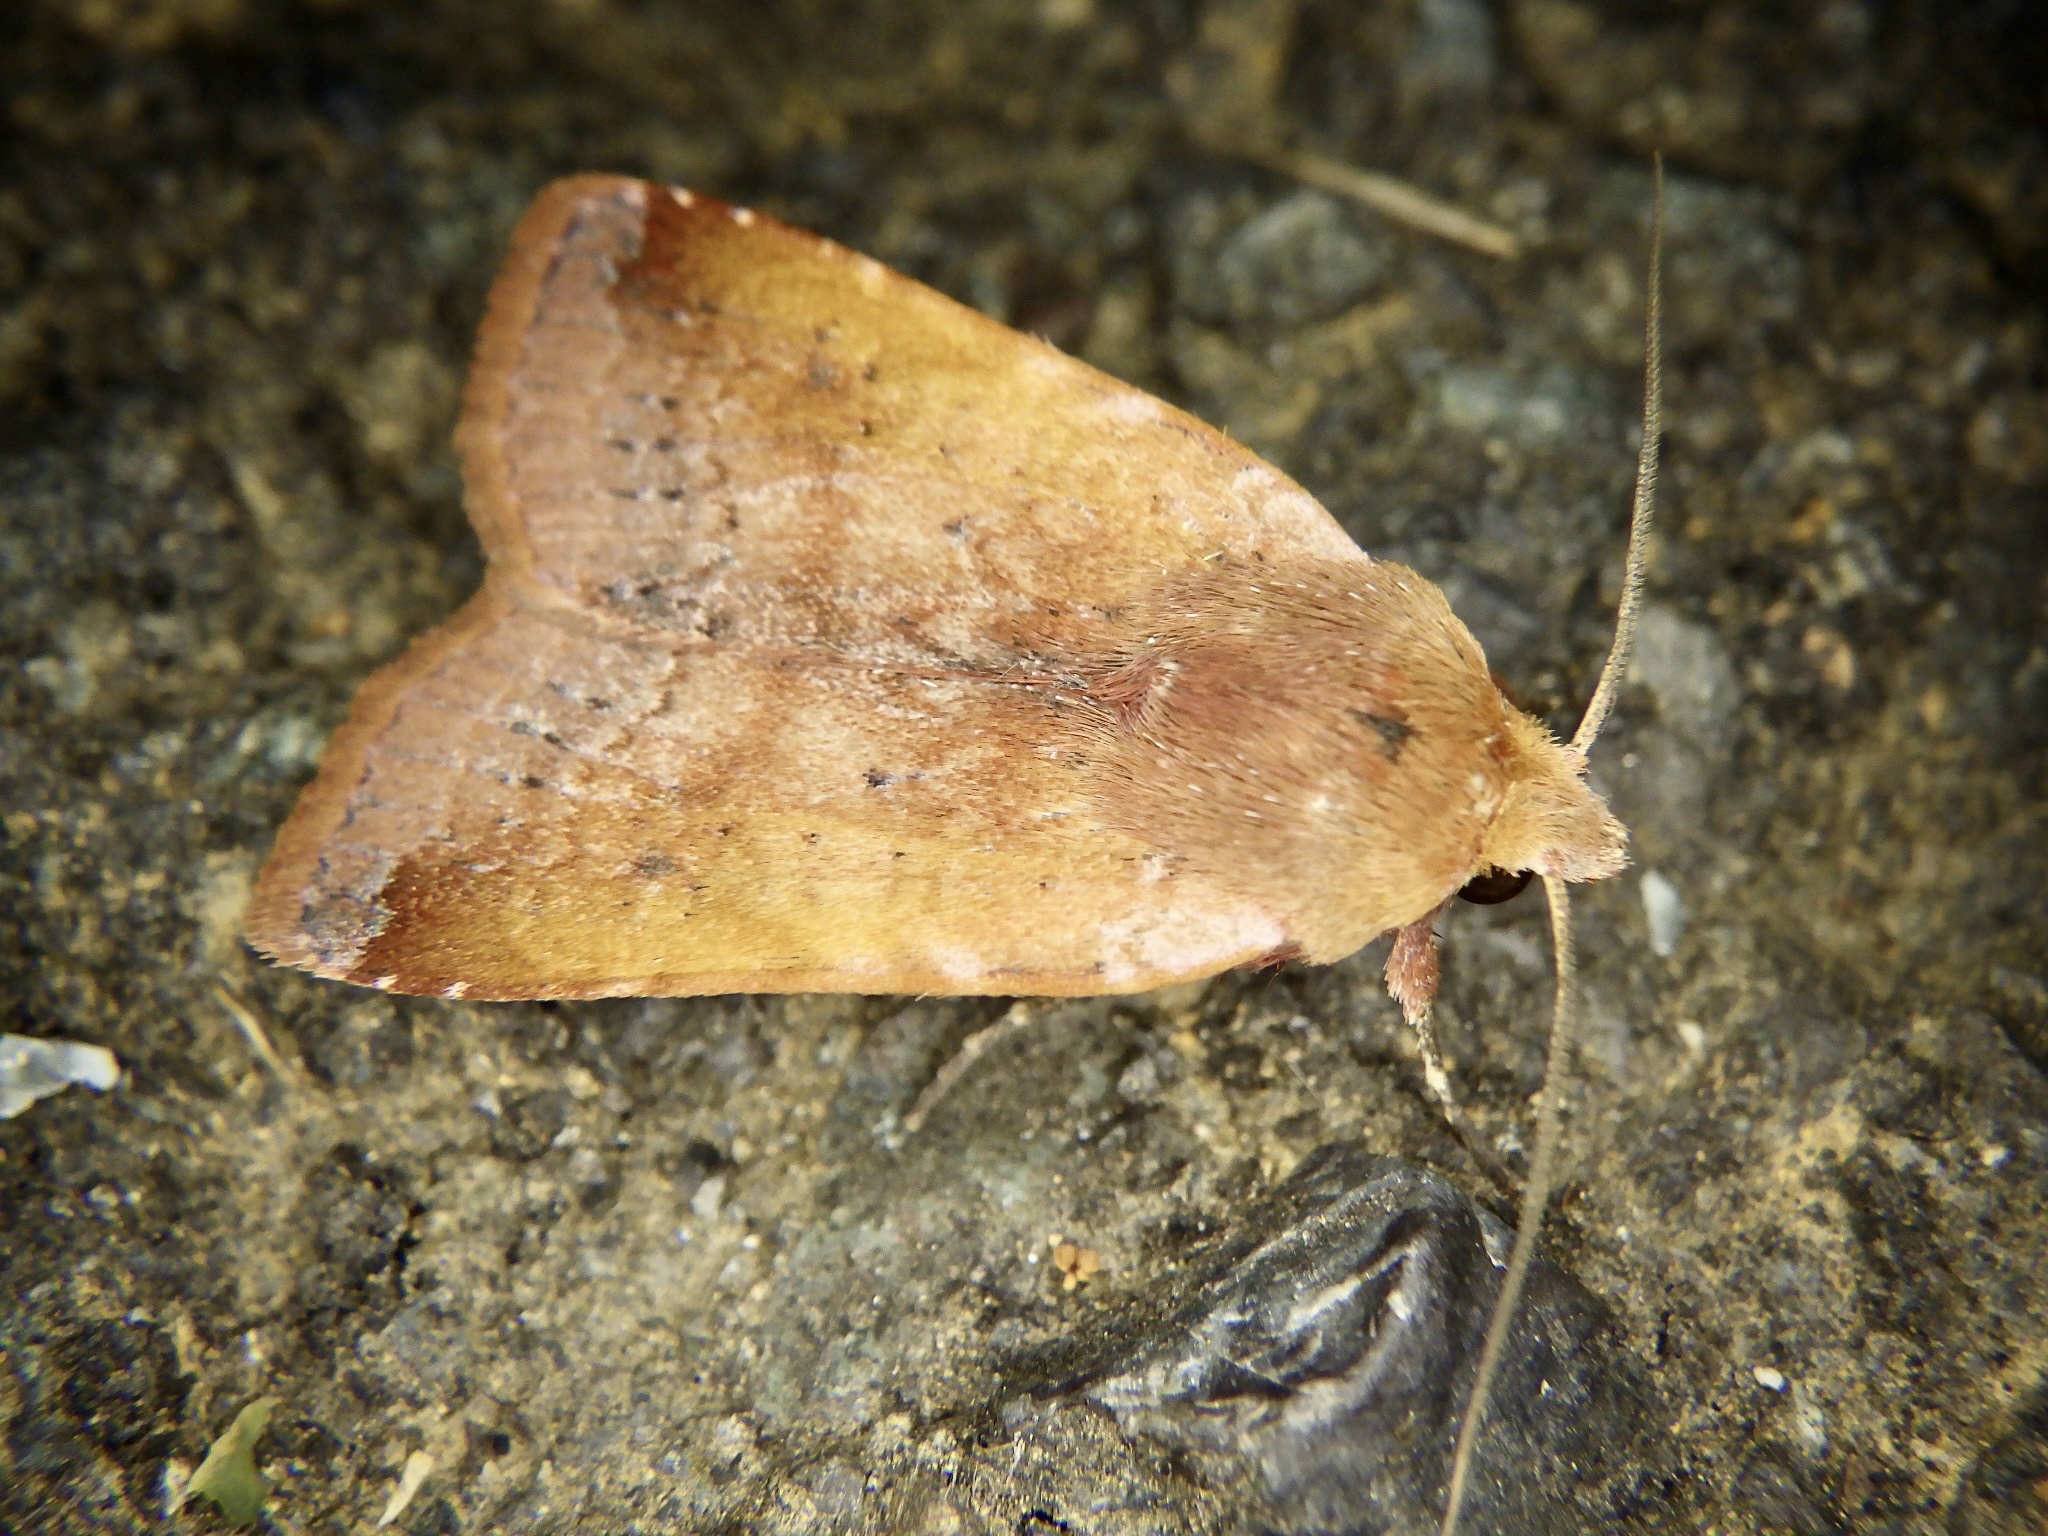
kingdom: Animalia
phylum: Arthropoda
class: Insecta
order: Lepidoptera
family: Noctuidae
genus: Diarsia
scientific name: Diarsia ruficauda
